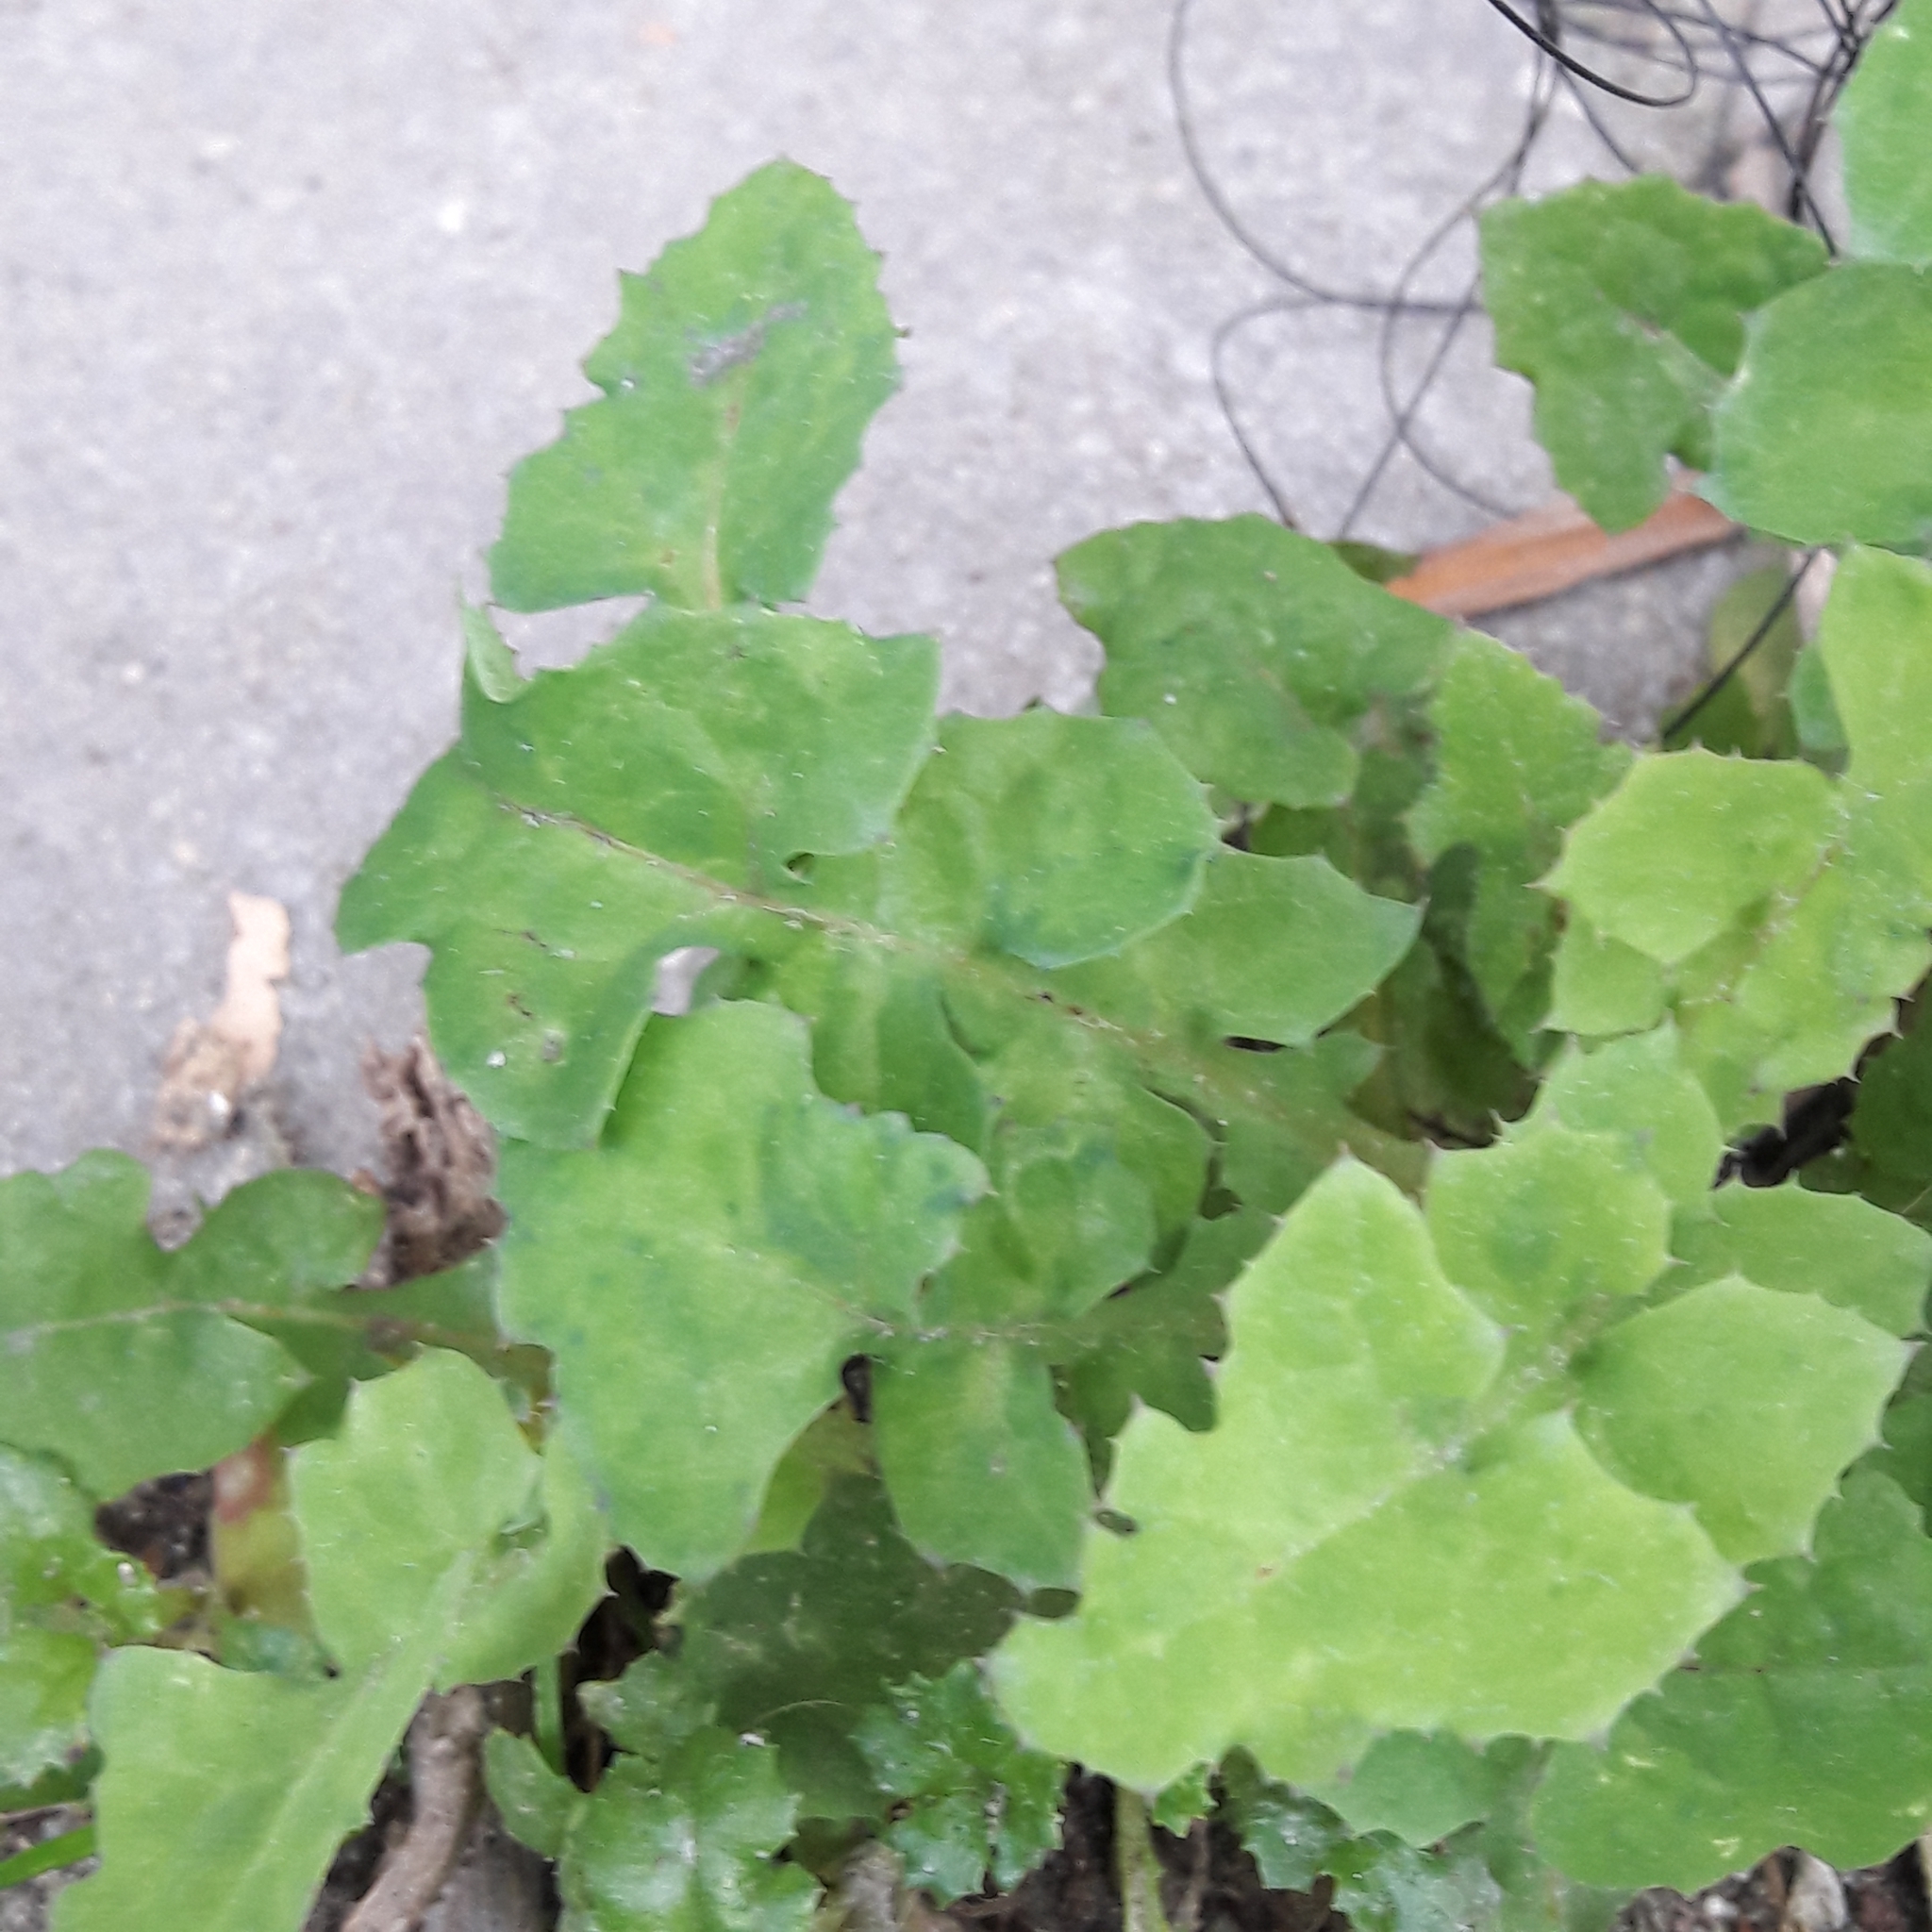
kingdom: Plantae
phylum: Tracheophyta
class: Magnoliopsida
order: Asterales
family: Asteraceae
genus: Sonchus
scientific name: Sonchus oleraceus
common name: Common sowthistle
